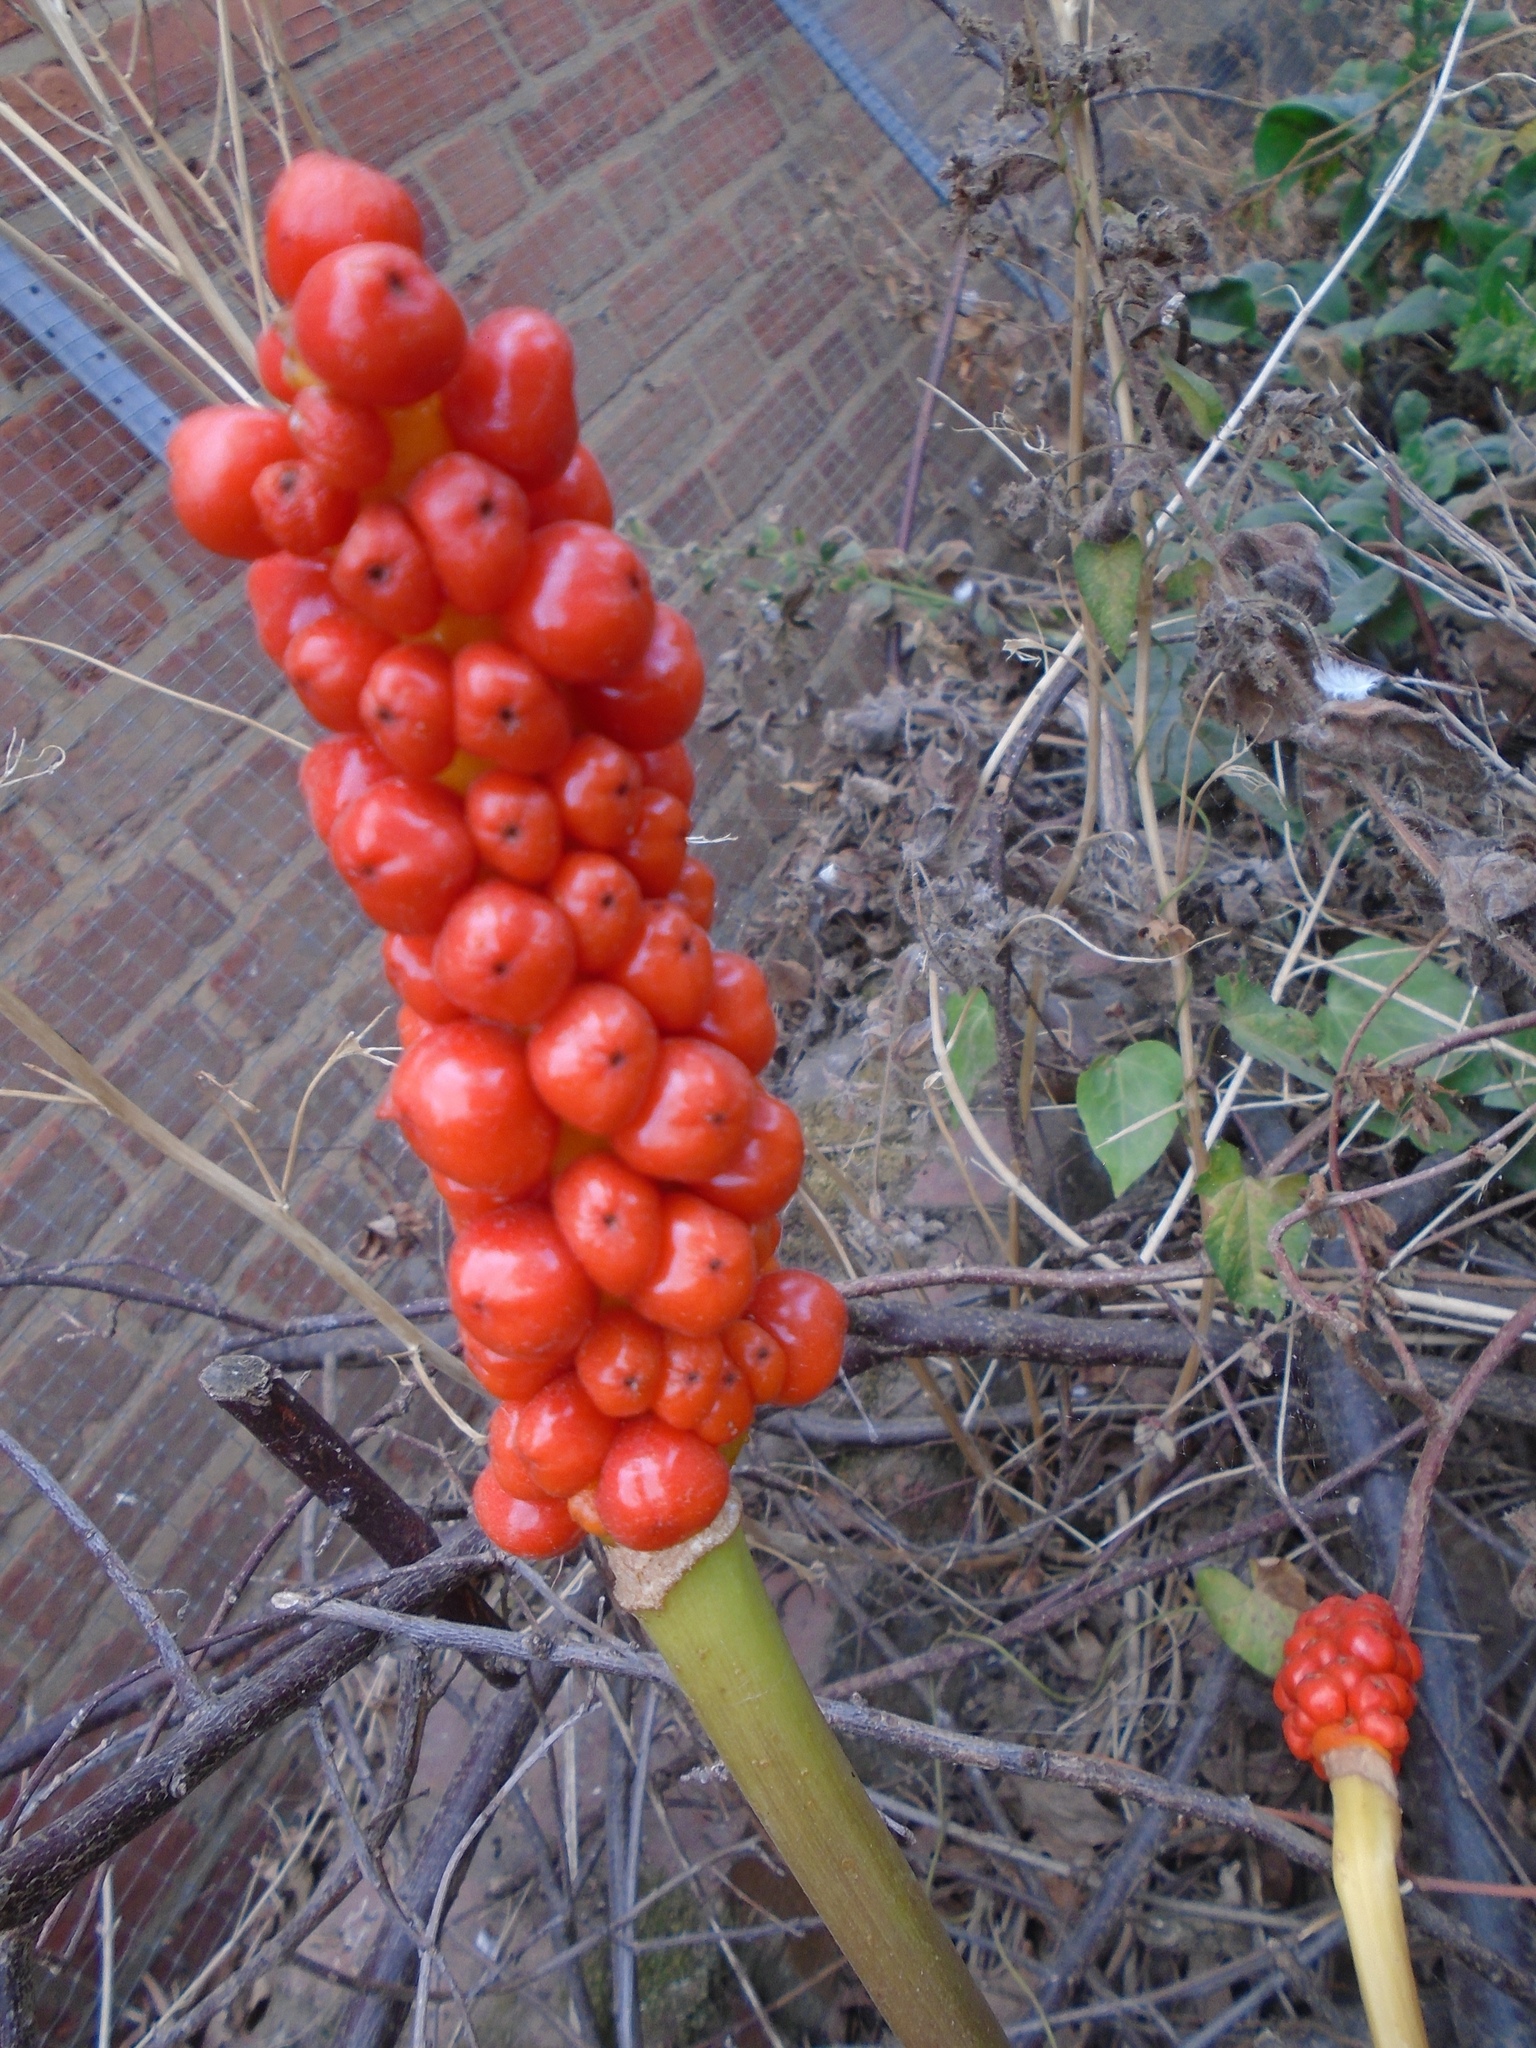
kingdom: Plantae
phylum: Tracheophyta
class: Liliopsida
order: Alismatales
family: Araceae
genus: Arum
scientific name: Arum maculatum
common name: Lords-and-ladies
